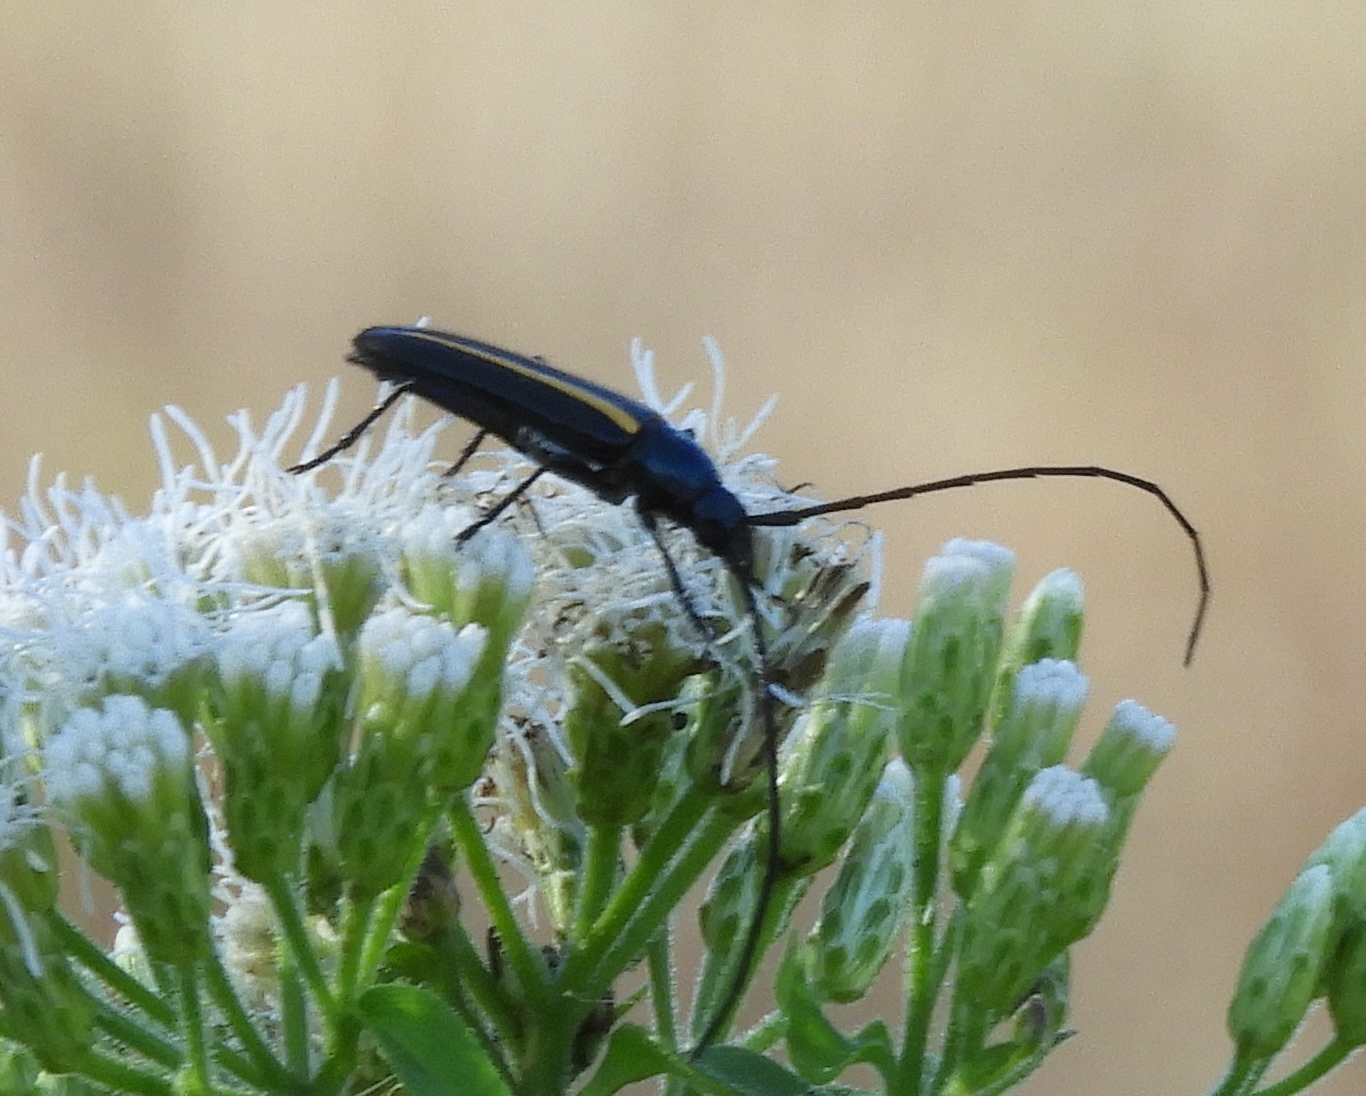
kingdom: Animalia
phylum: Arthropoda
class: Insecta
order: Coleoptera
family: Cerambycidae
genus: Lophalia
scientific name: Lophalia prolata
